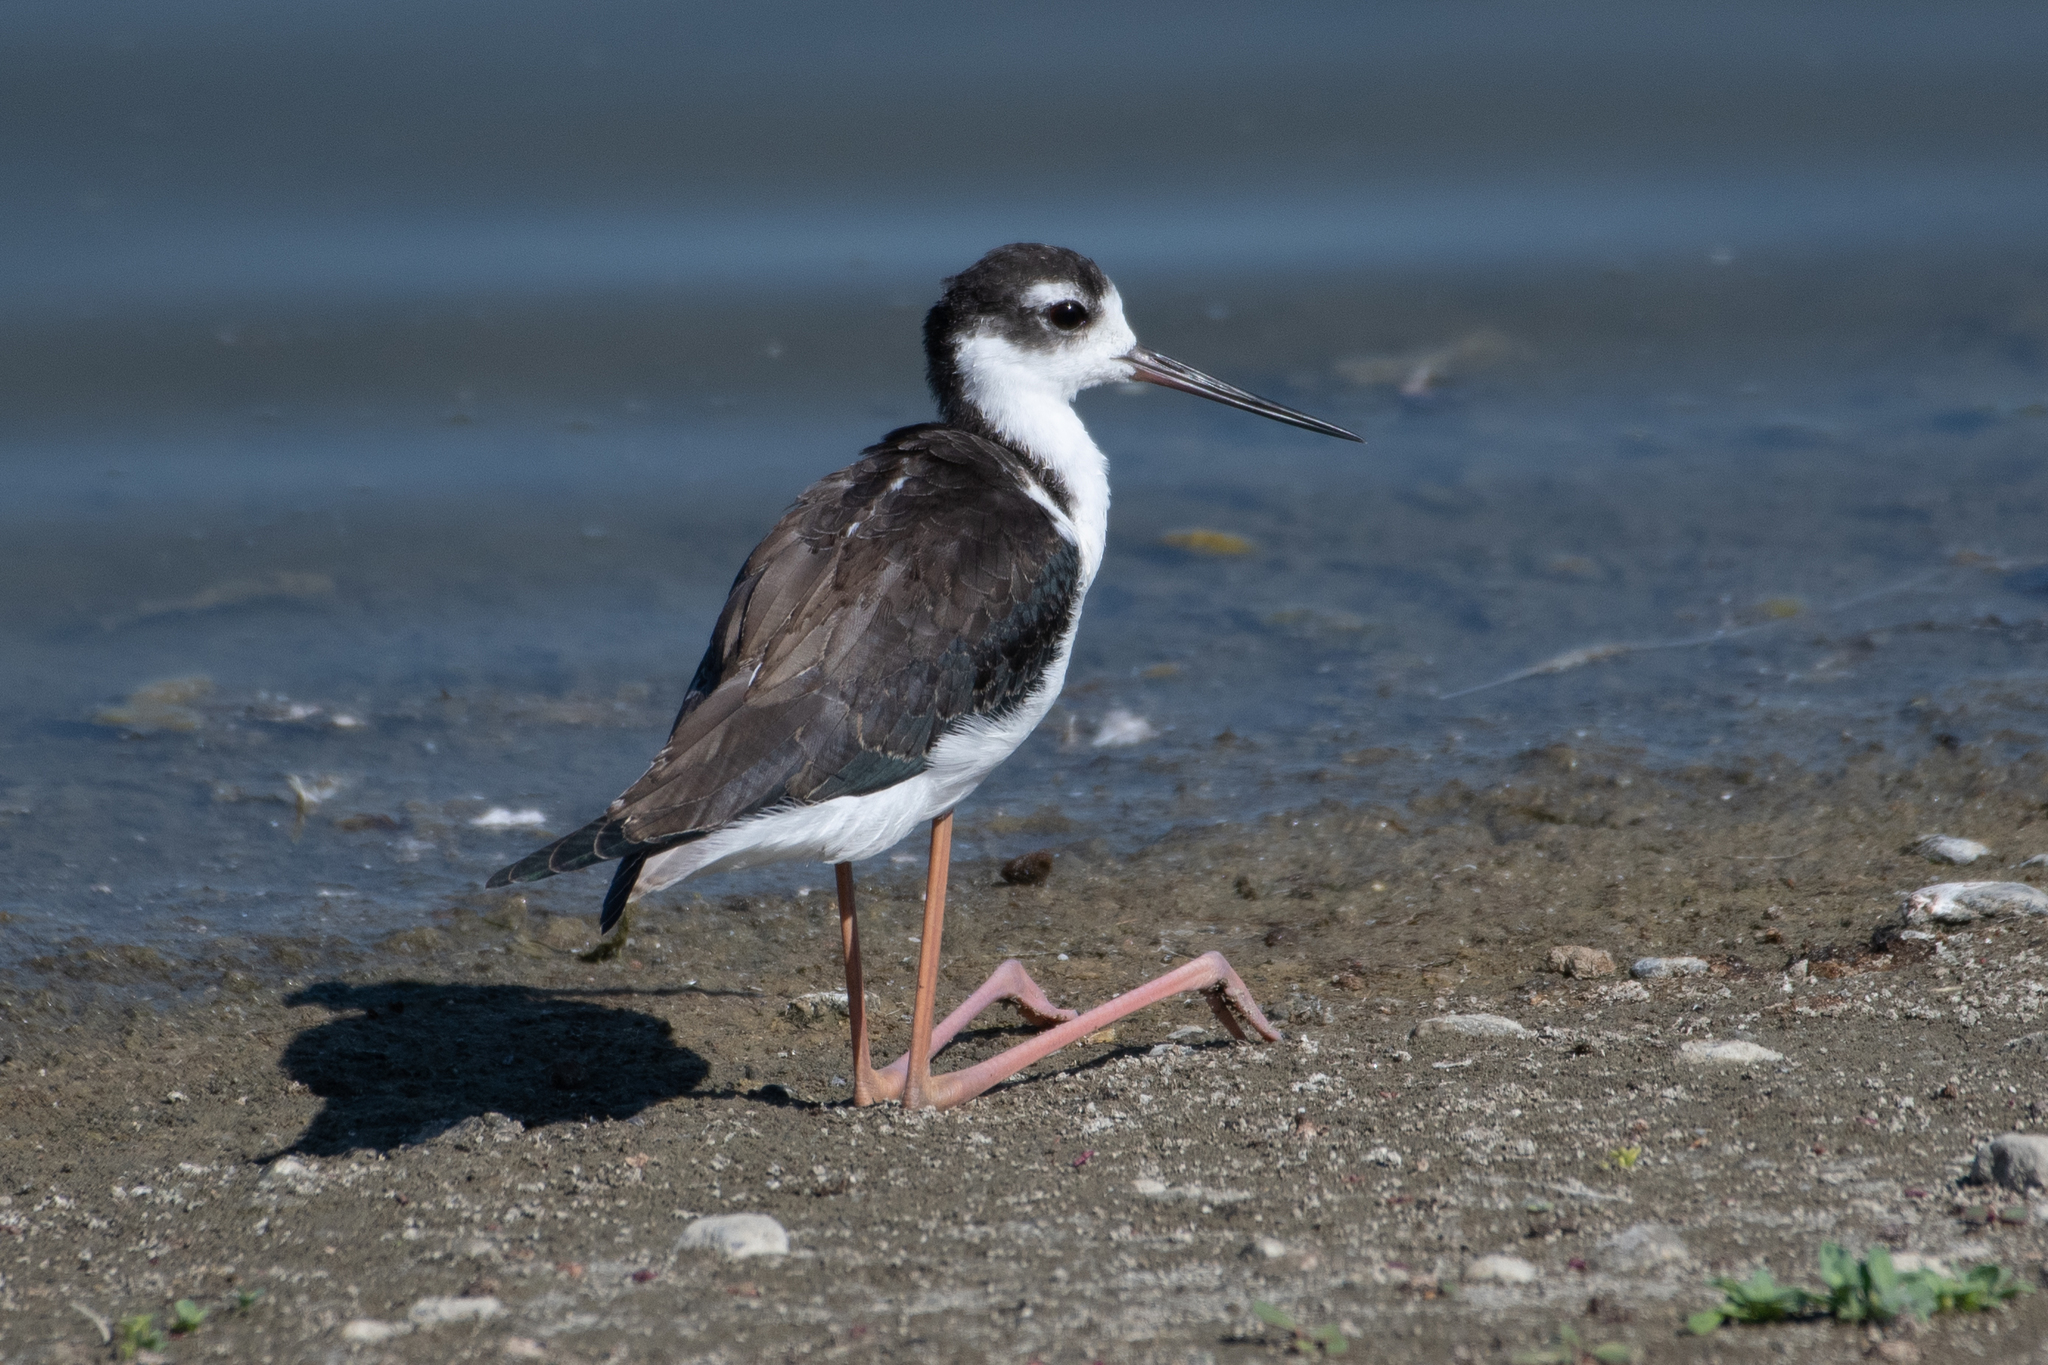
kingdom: Animalia
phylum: Chordata
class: Aves
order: Charadriiformes
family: Recurvirostridae
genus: Himantopus
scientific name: Himantopus mexicanus
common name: Black-necked stilt
